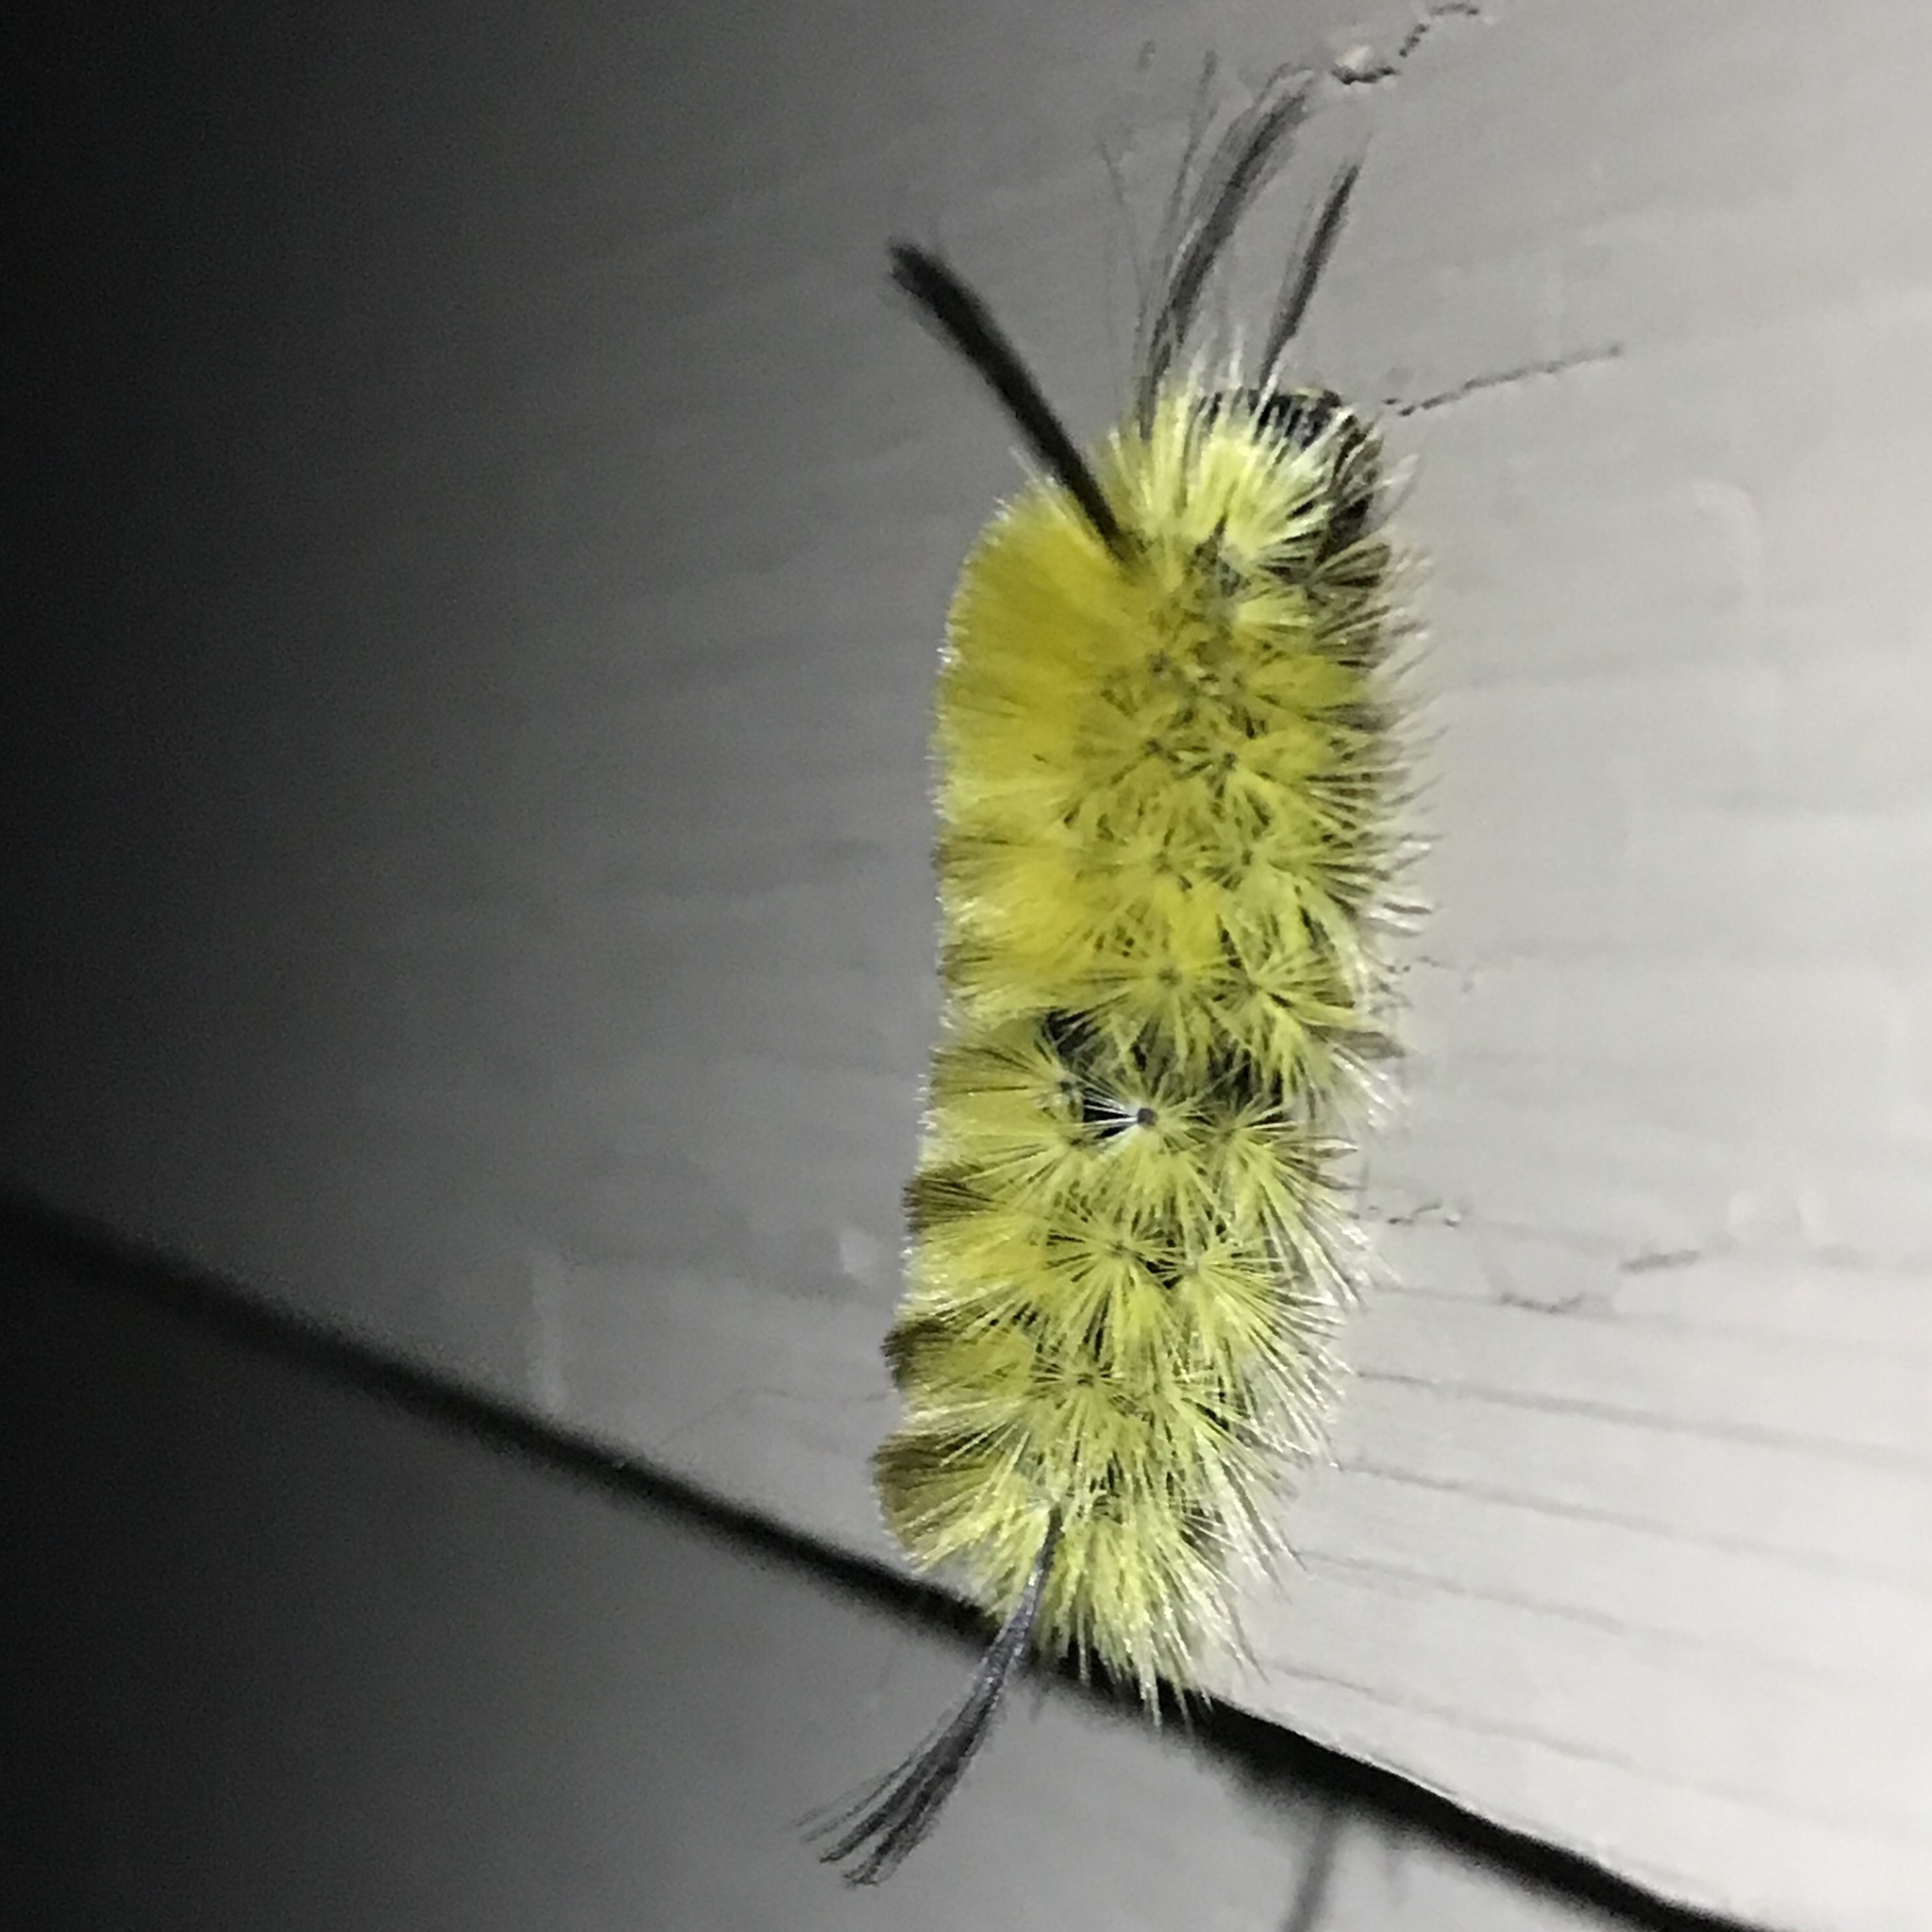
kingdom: Animalia
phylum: Arthropoda
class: Insecta
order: Lepidoptera
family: Erebidae
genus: Halysidota
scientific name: Halysidota tessellaris
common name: Banded tussock moth
